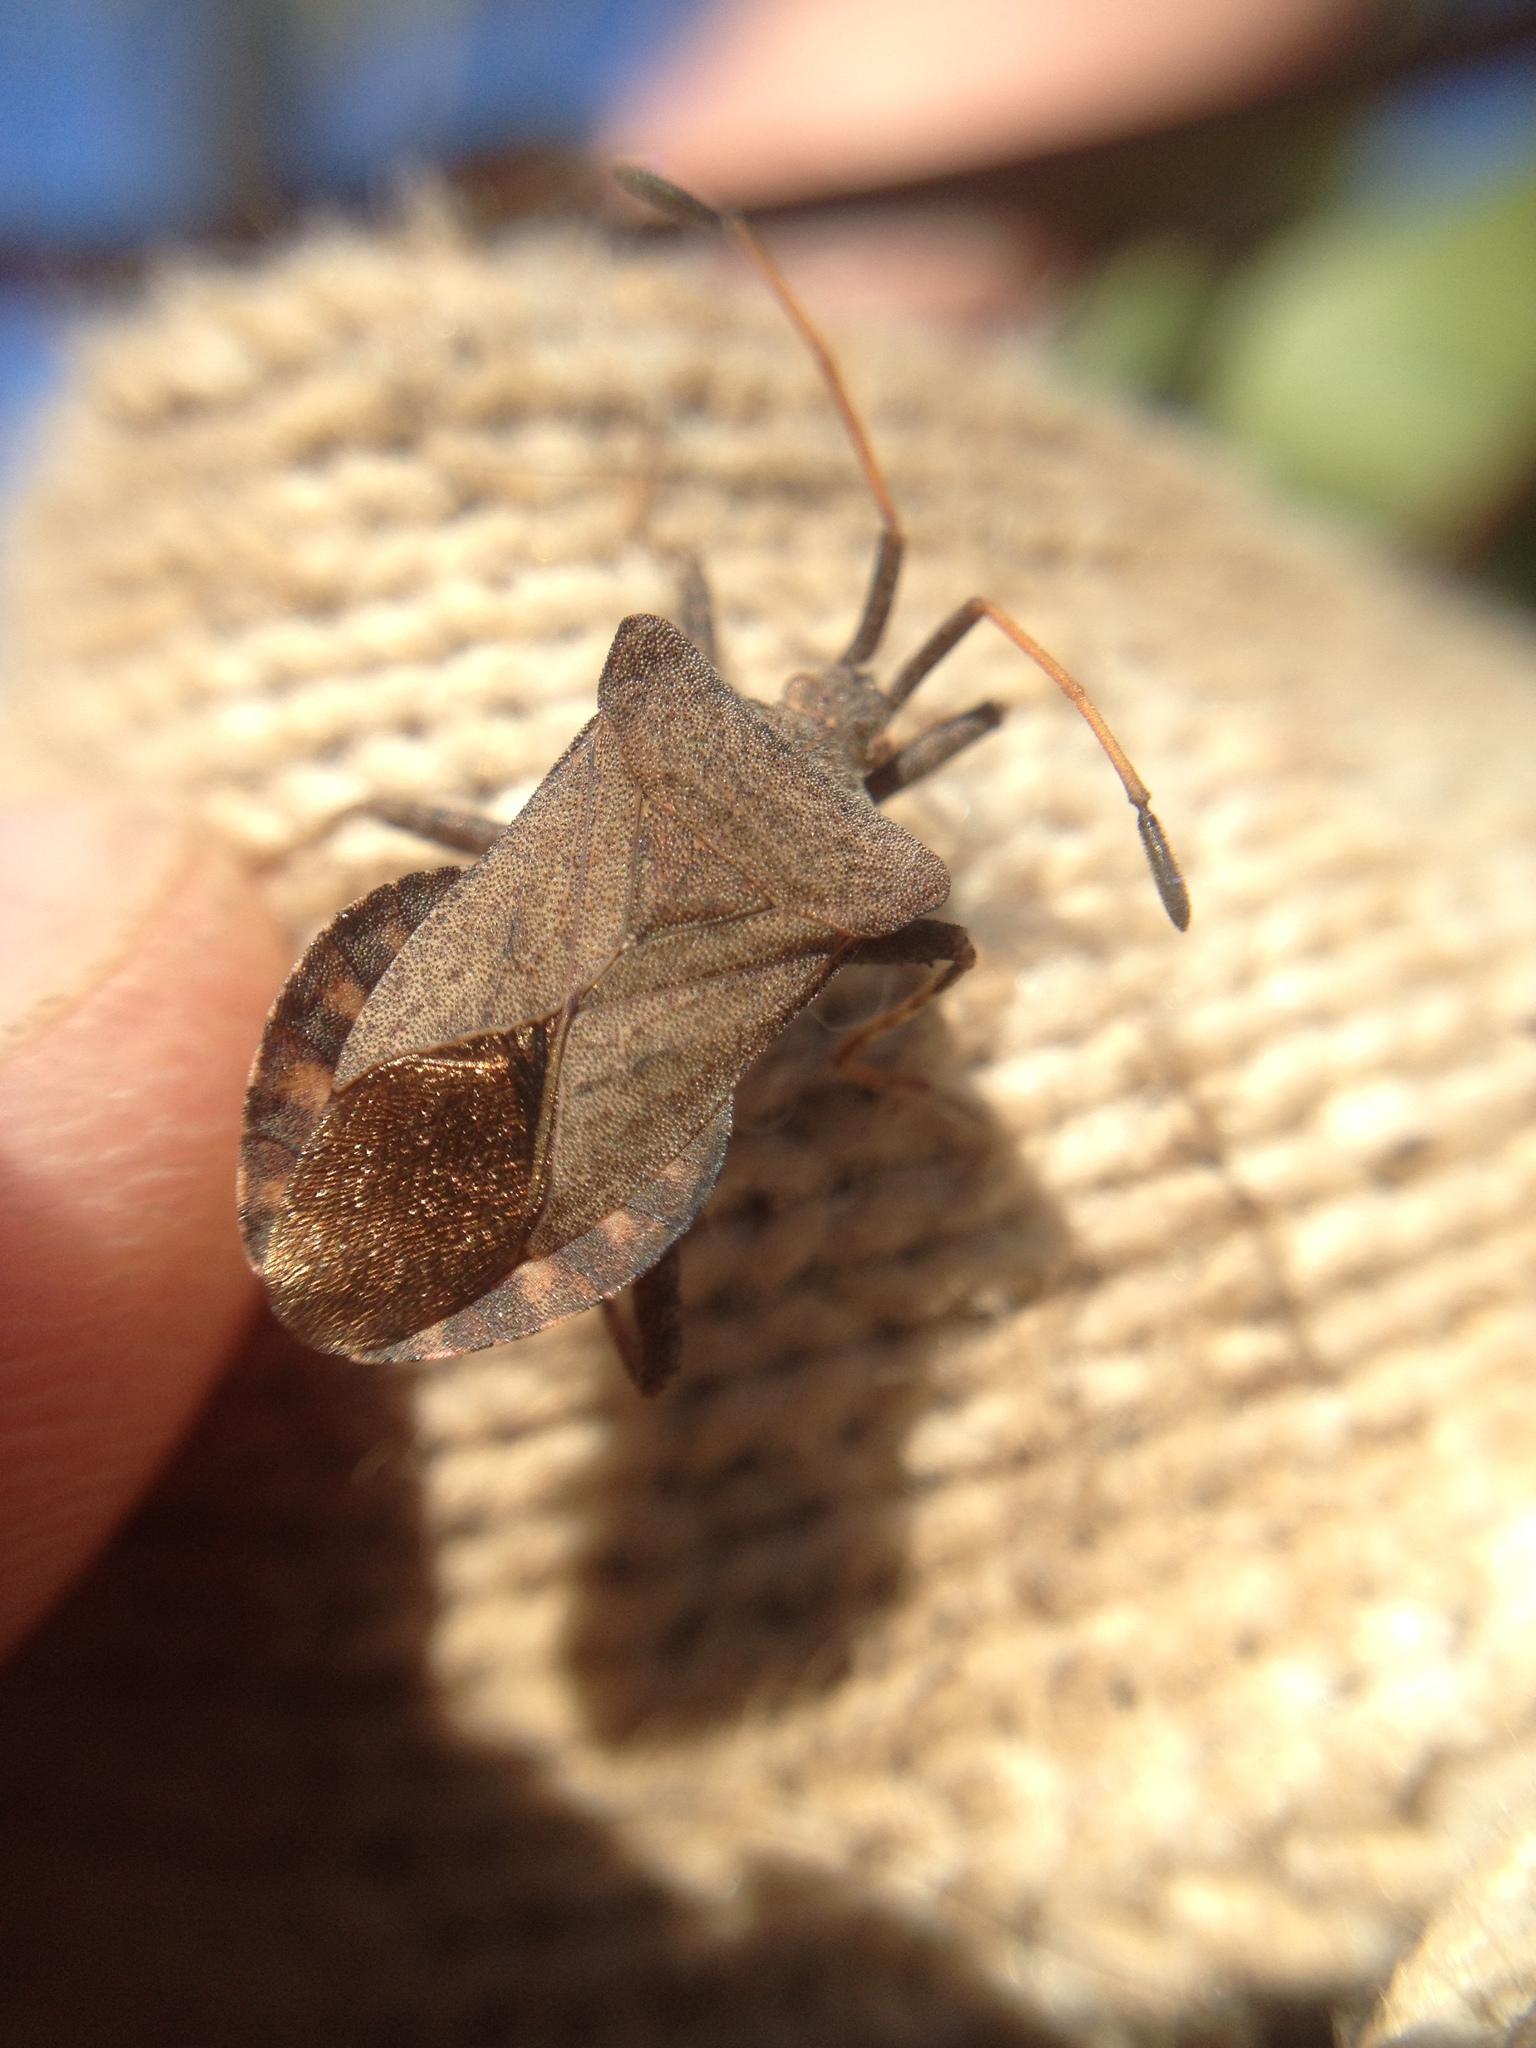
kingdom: Animalia
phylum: Arthropoda
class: Insecta
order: Hemiptera
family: Coreidae
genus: Coreus
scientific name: Coreus marginatus
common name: Dock bug
